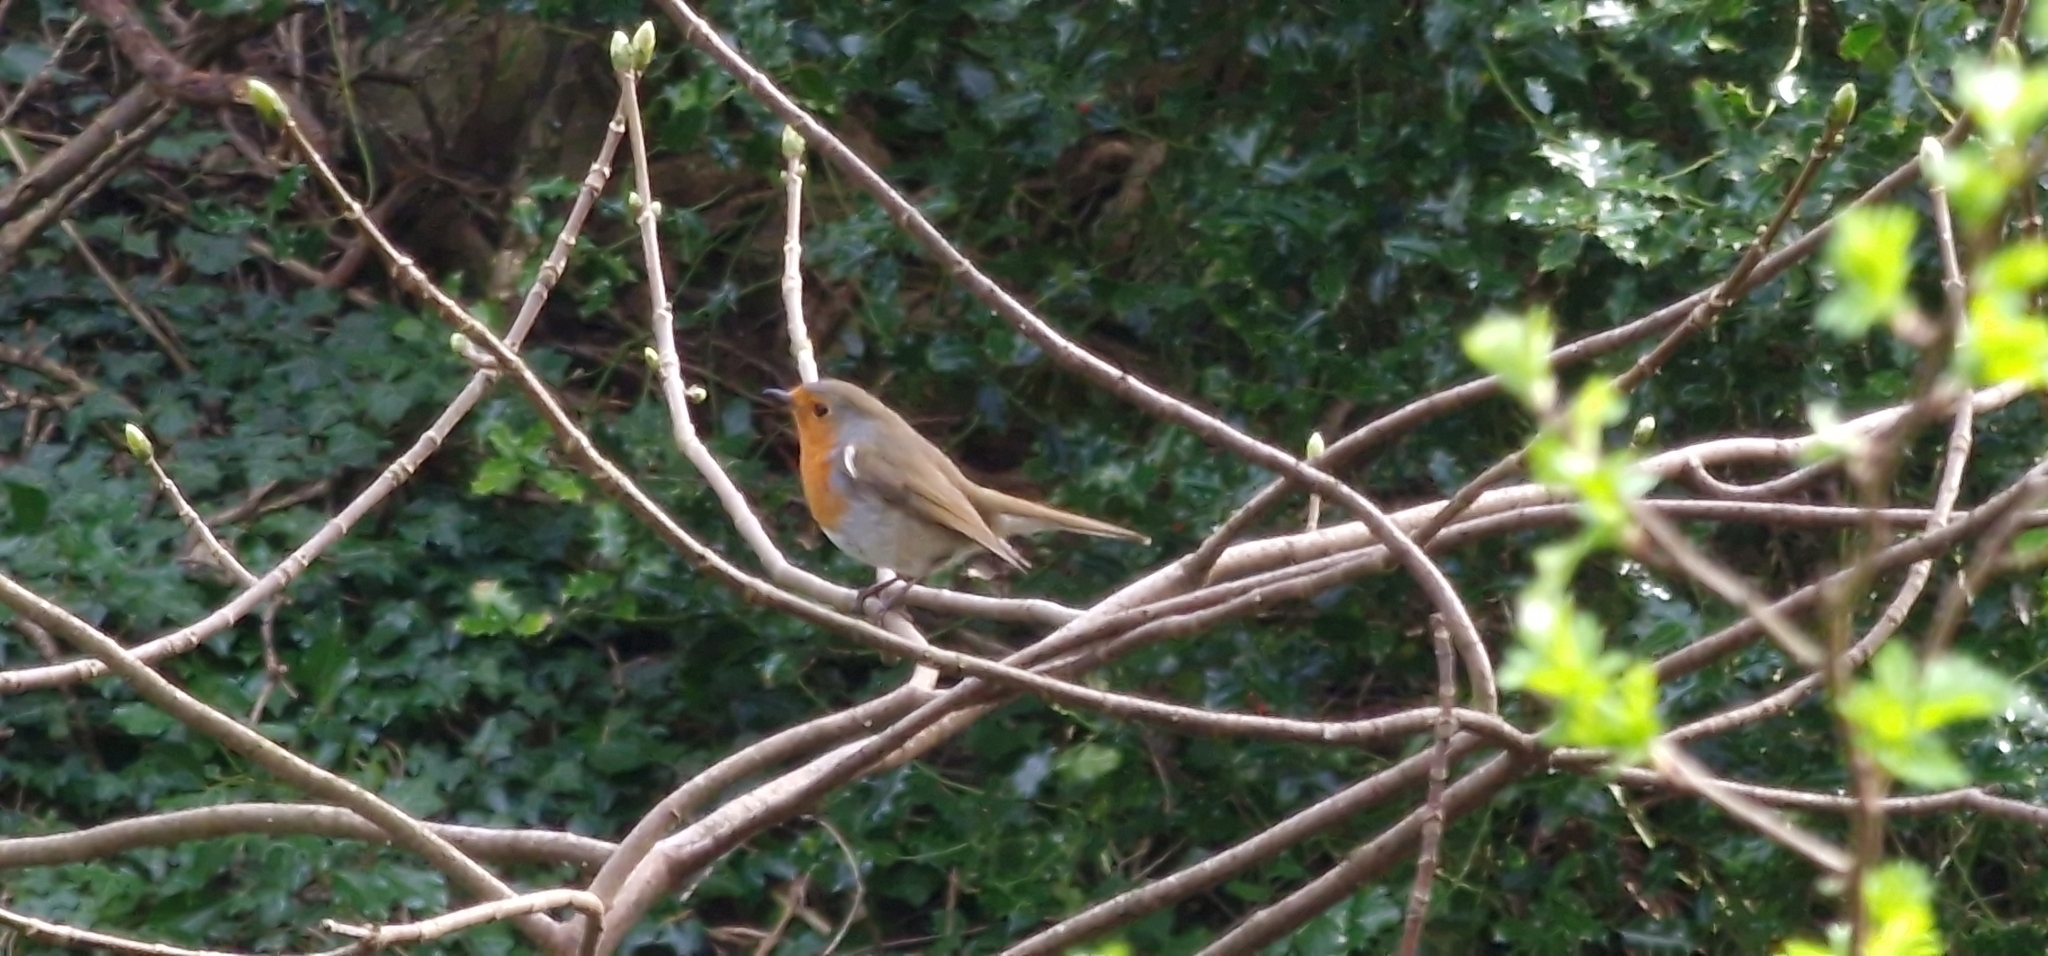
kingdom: Animalia
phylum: Chordata
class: Aves
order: Passeriformes
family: Muscicapidae
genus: Erithacus
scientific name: Erithacus rubecula
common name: European robin
